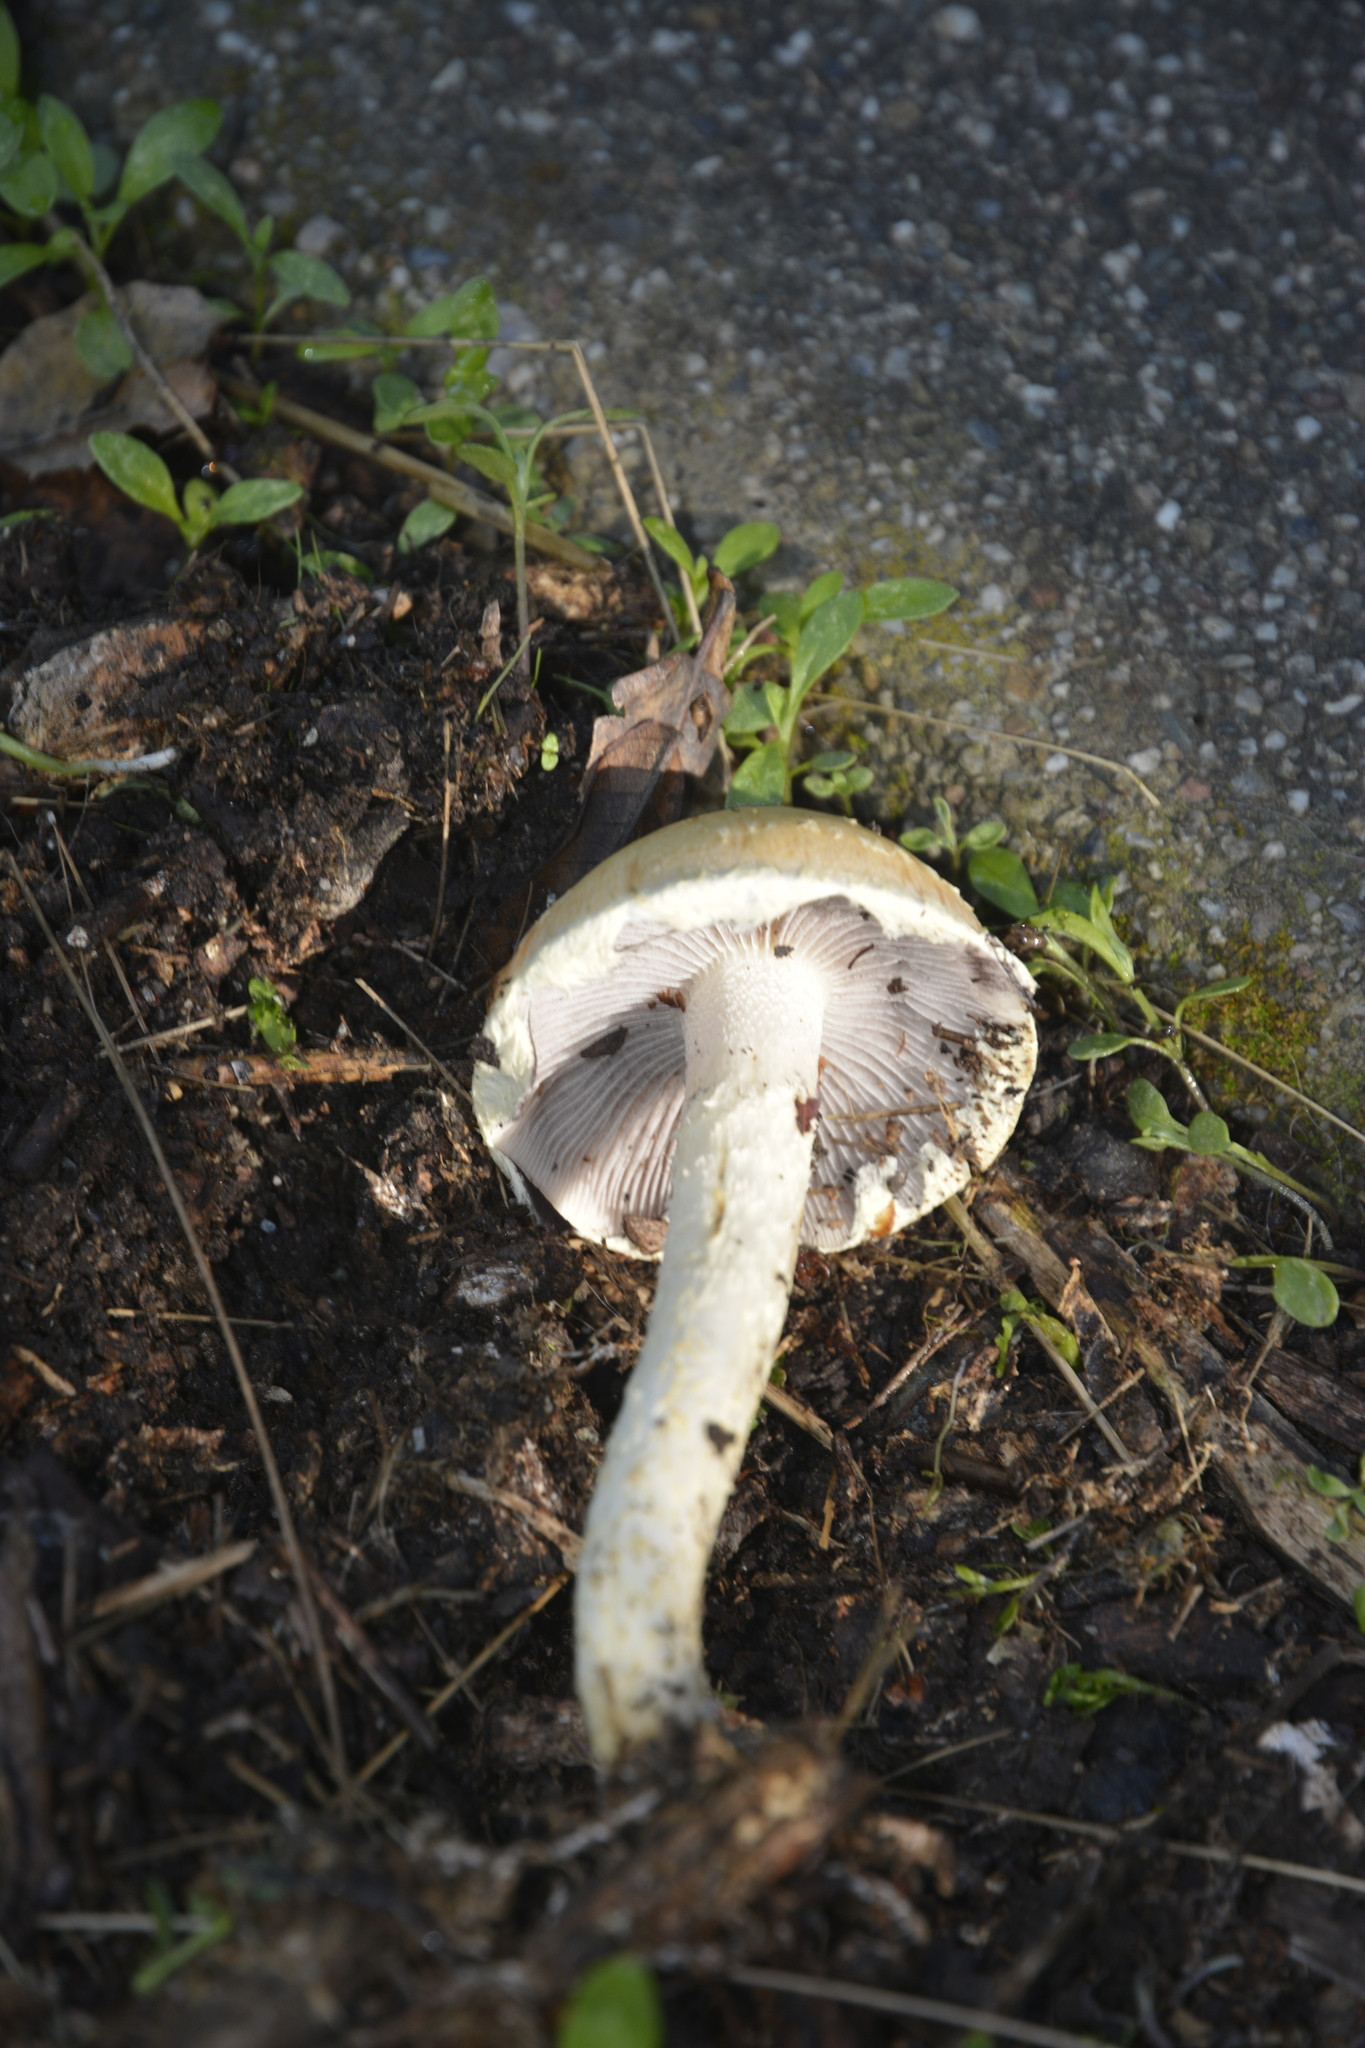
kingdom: Fungi
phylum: Basidiomycota
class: Agaricomycetes
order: Agaricales
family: Strophariaceae
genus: Leratiomyces
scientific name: Leratiomyces percevalii
